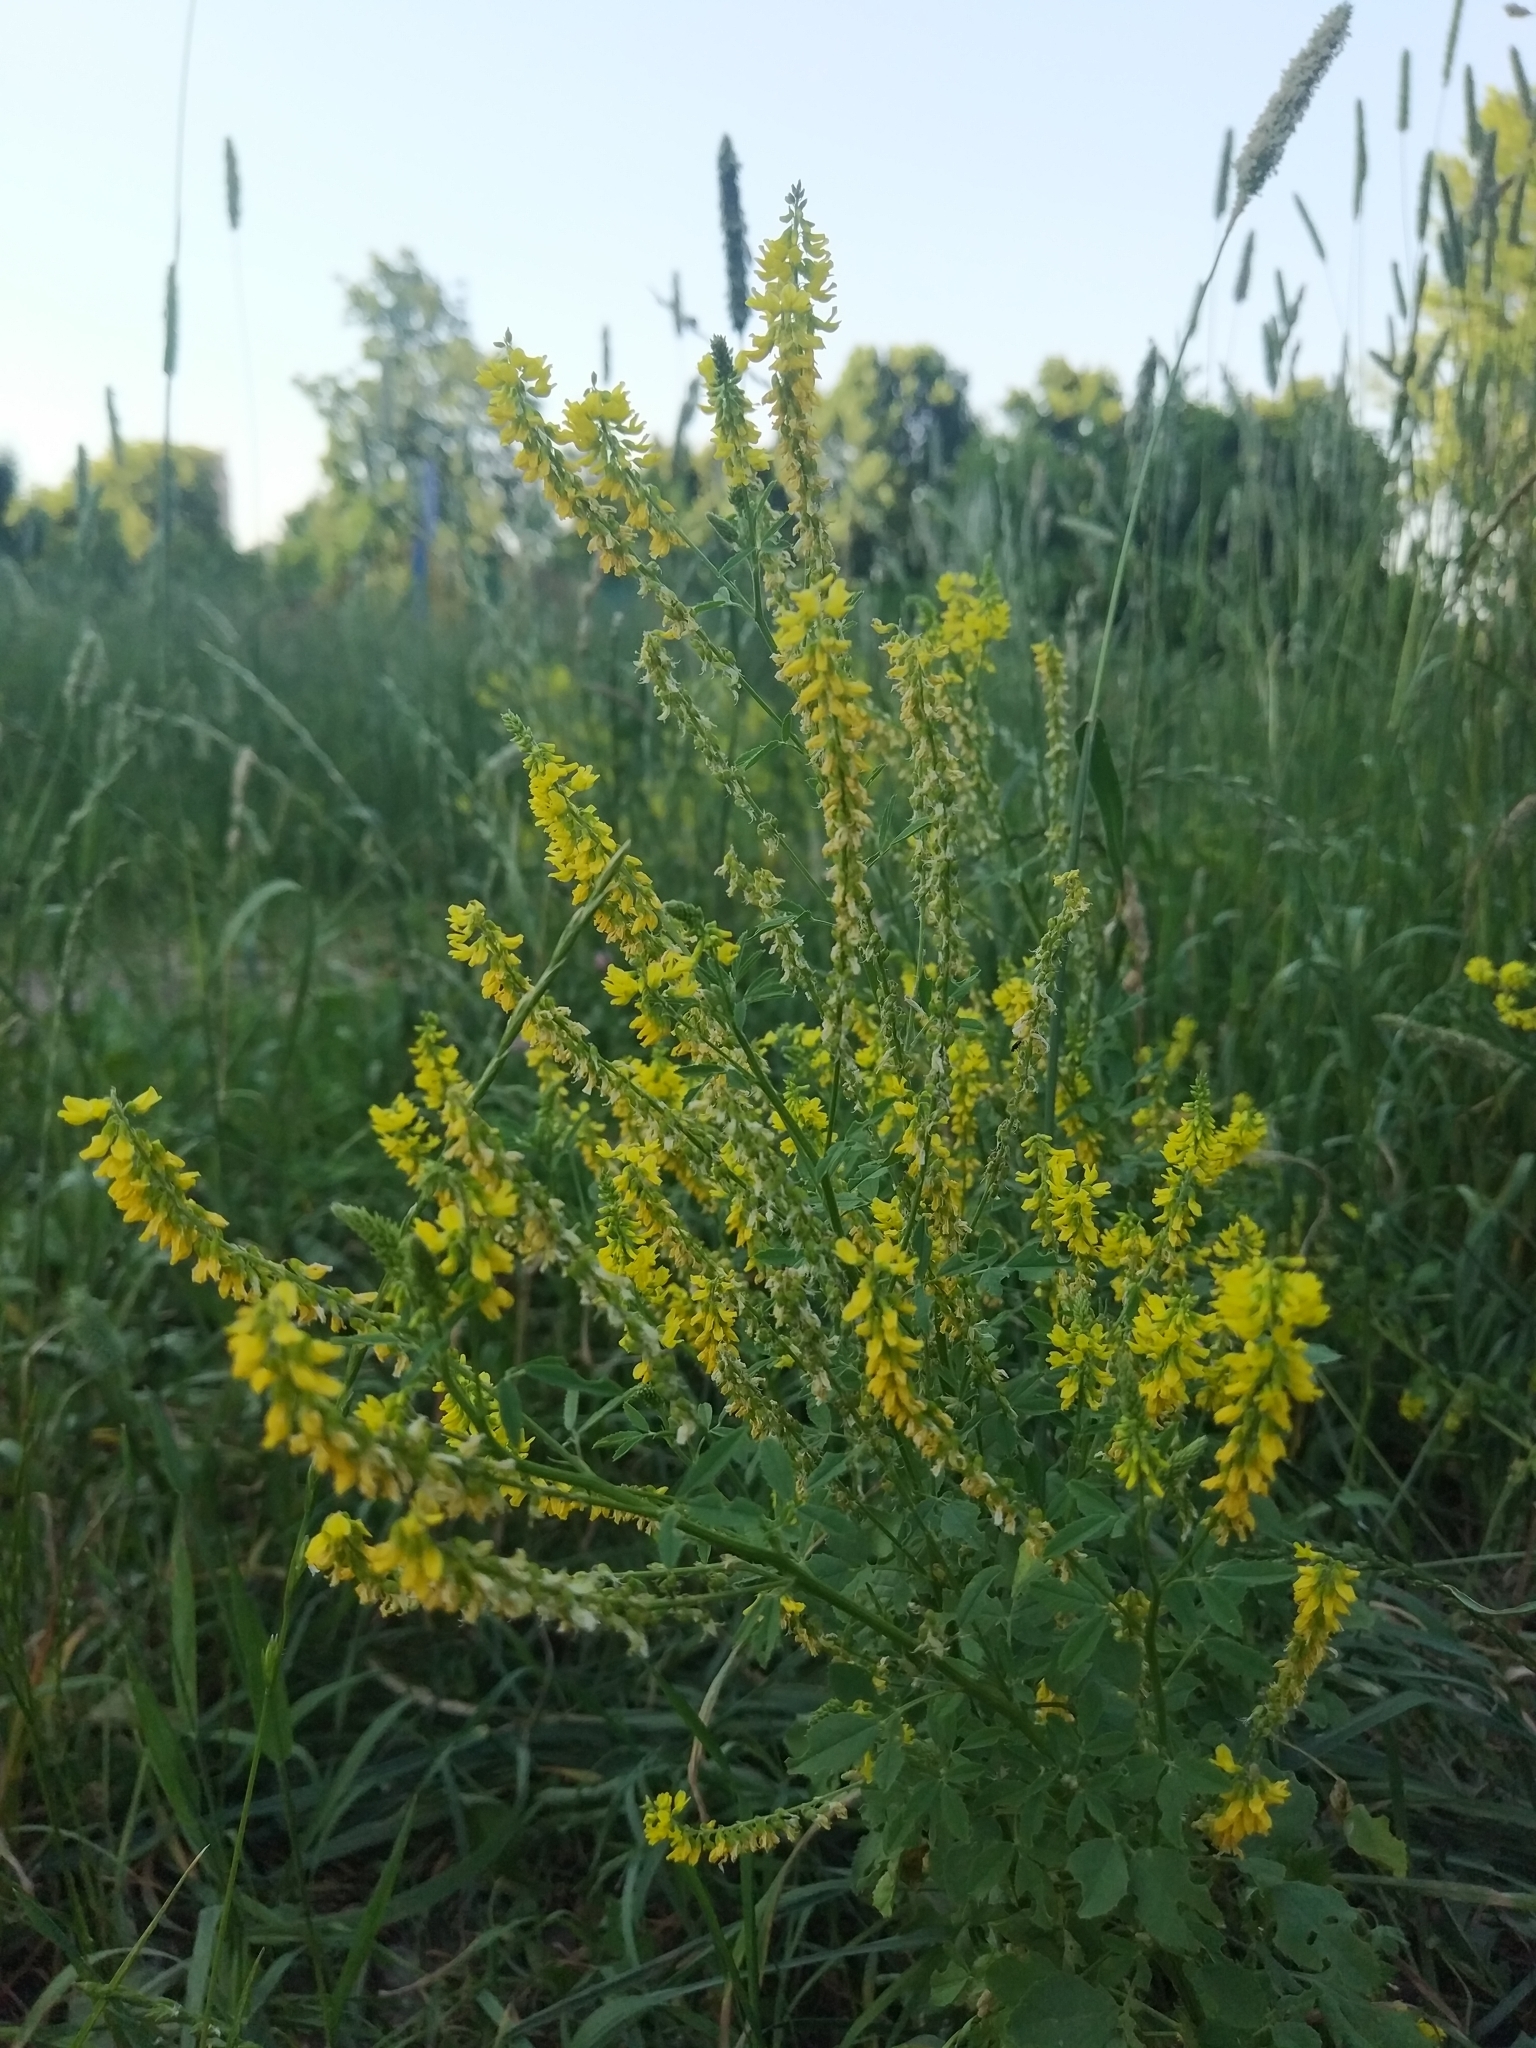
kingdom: Plantae
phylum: Tracheophyta
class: Magnoliopsida
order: Fabales
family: Fabaceae
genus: Melilotus
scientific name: Melilotus officinalis
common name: Sweetclover
